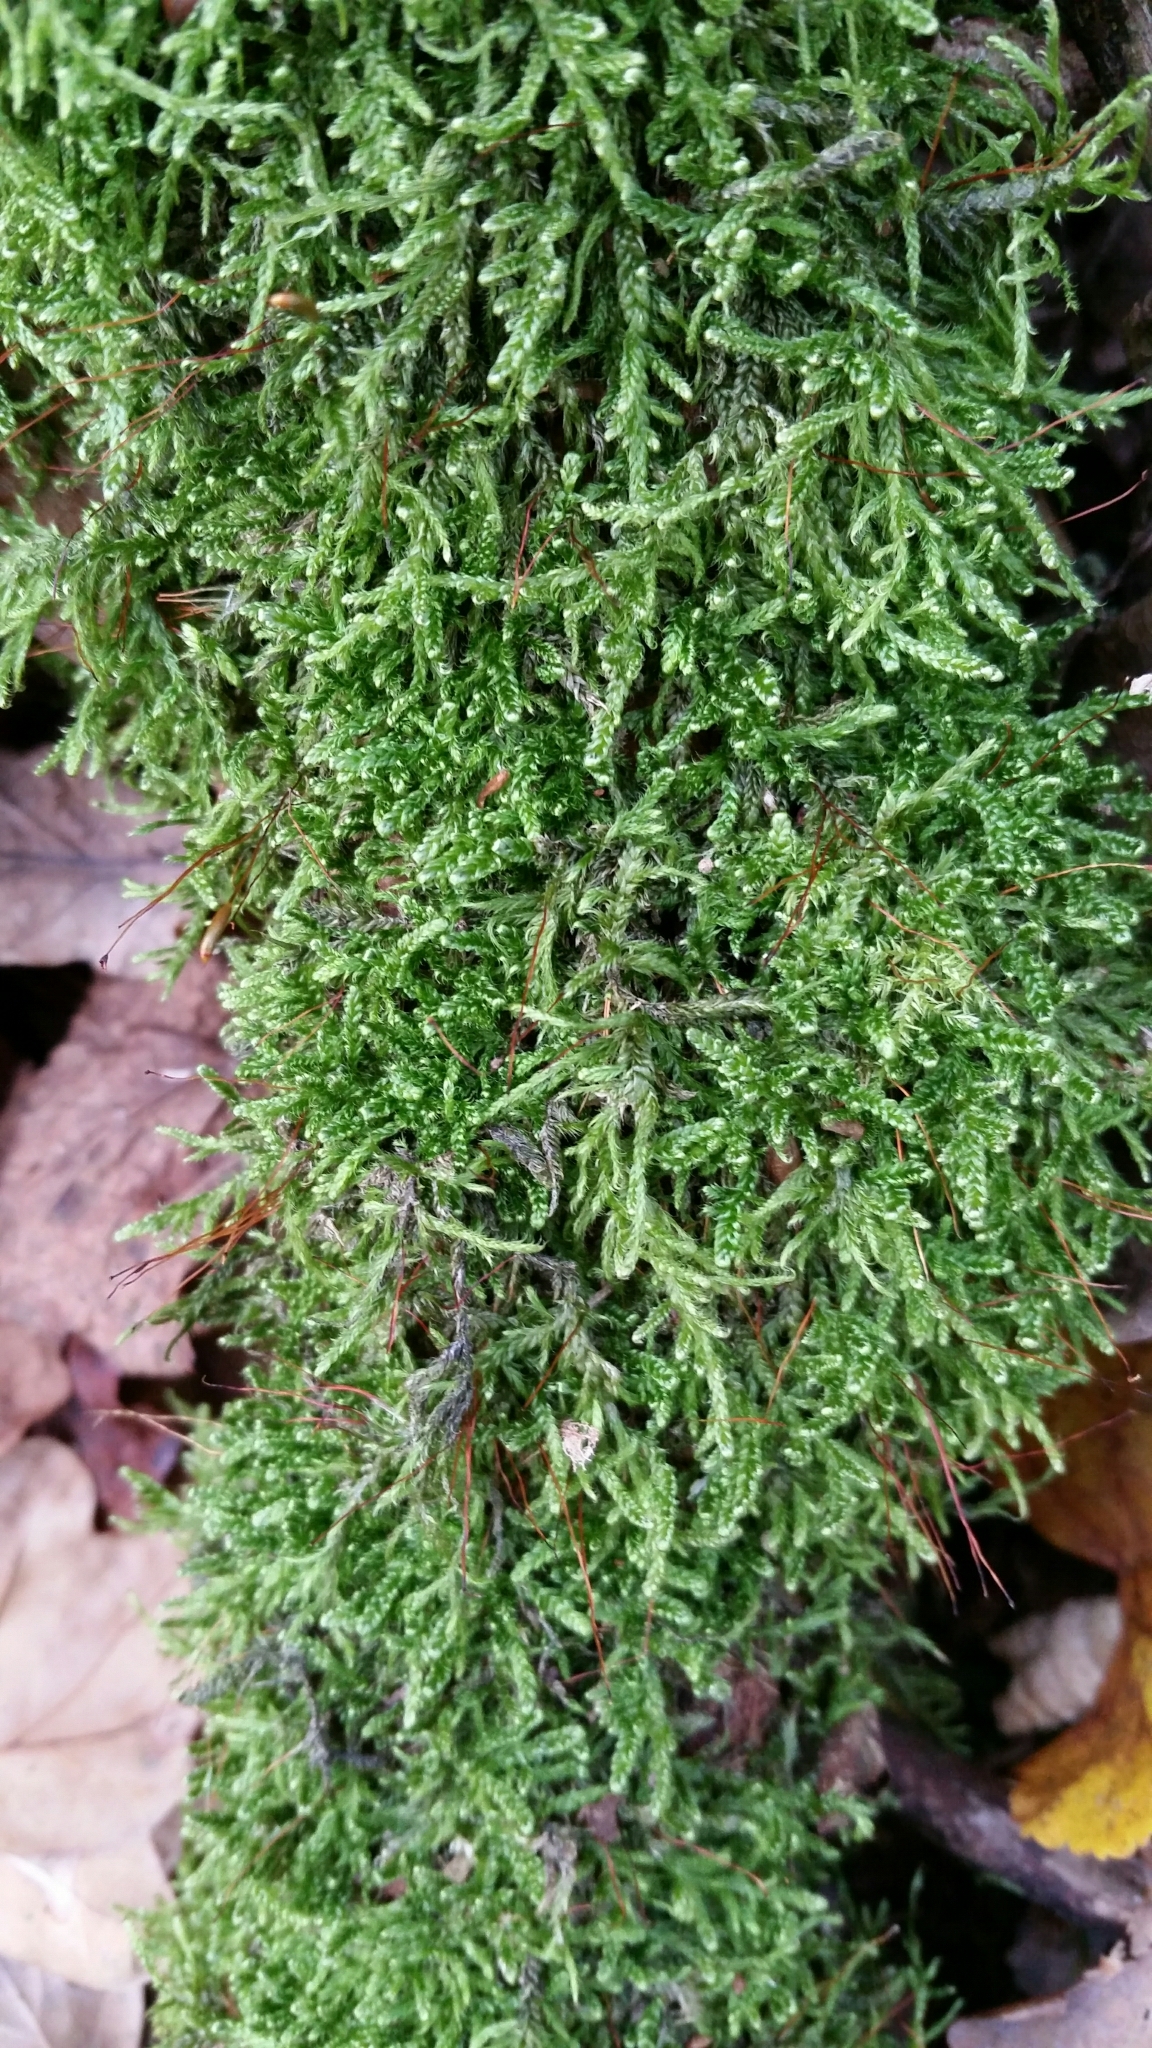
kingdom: Plantae
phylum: Bryophyta
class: Bryopsida
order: Hypnales
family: Hypnaceae
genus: Hypnum
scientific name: Hypnum cupressiforme
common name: Cypress-leaved plait-moss
